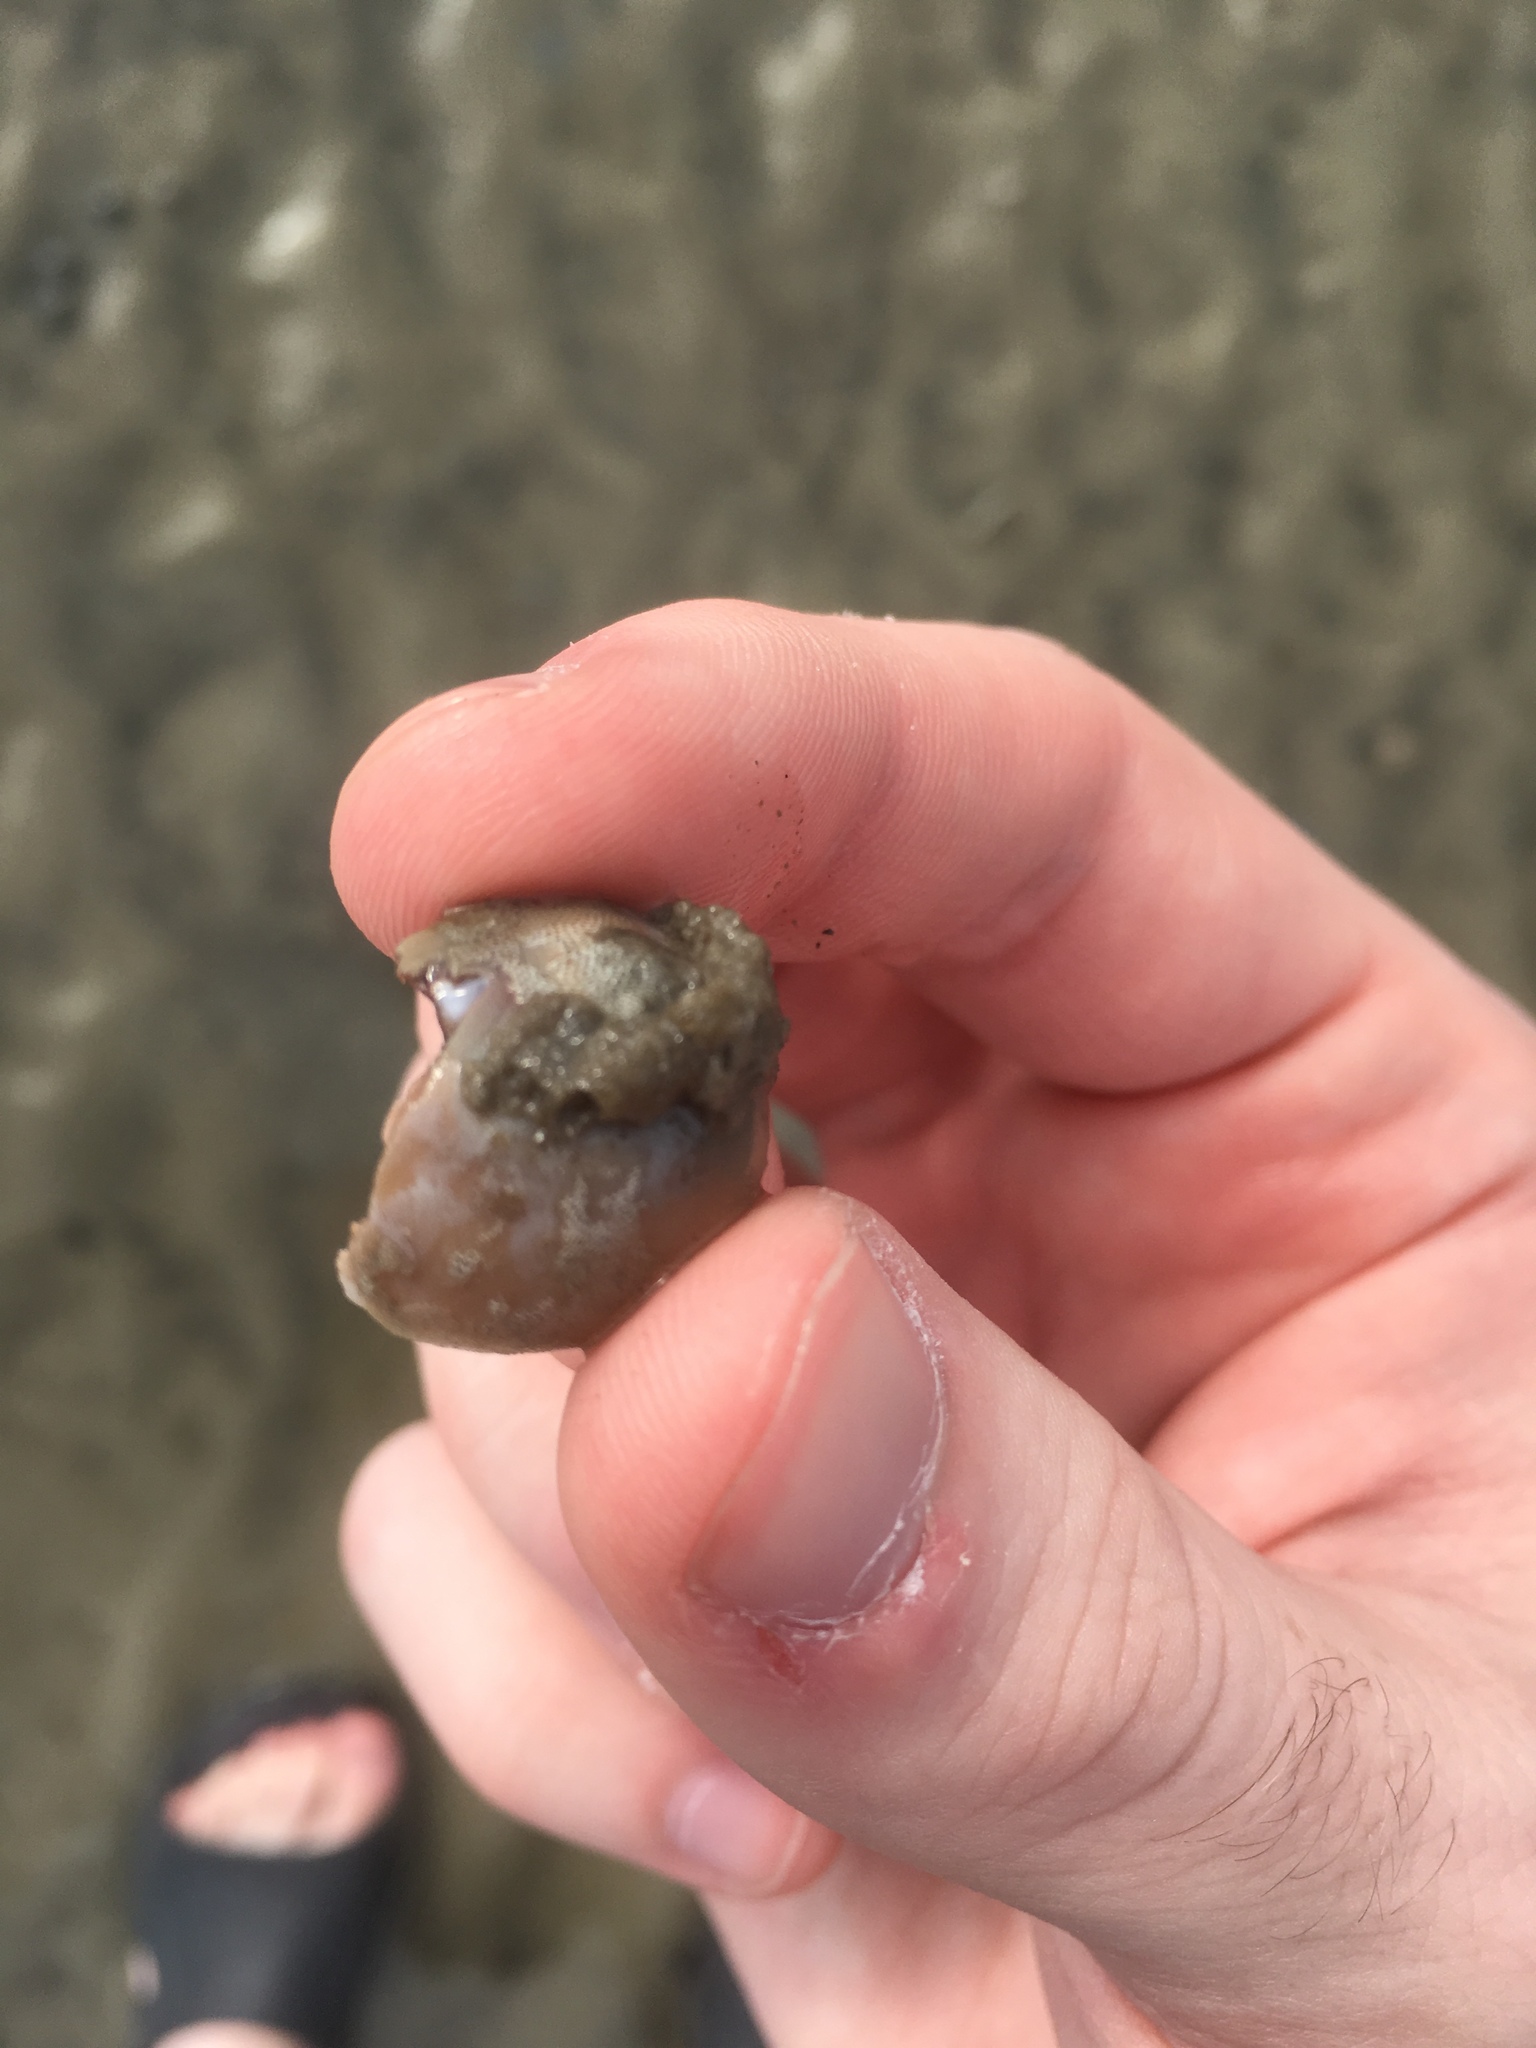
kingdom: Animalia
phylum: Mollusca
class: Gastropoda
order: Littorinimorpha
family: Naticidae
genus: Neverita
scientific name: Neverita duplicata
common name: Lobed moonsnail
